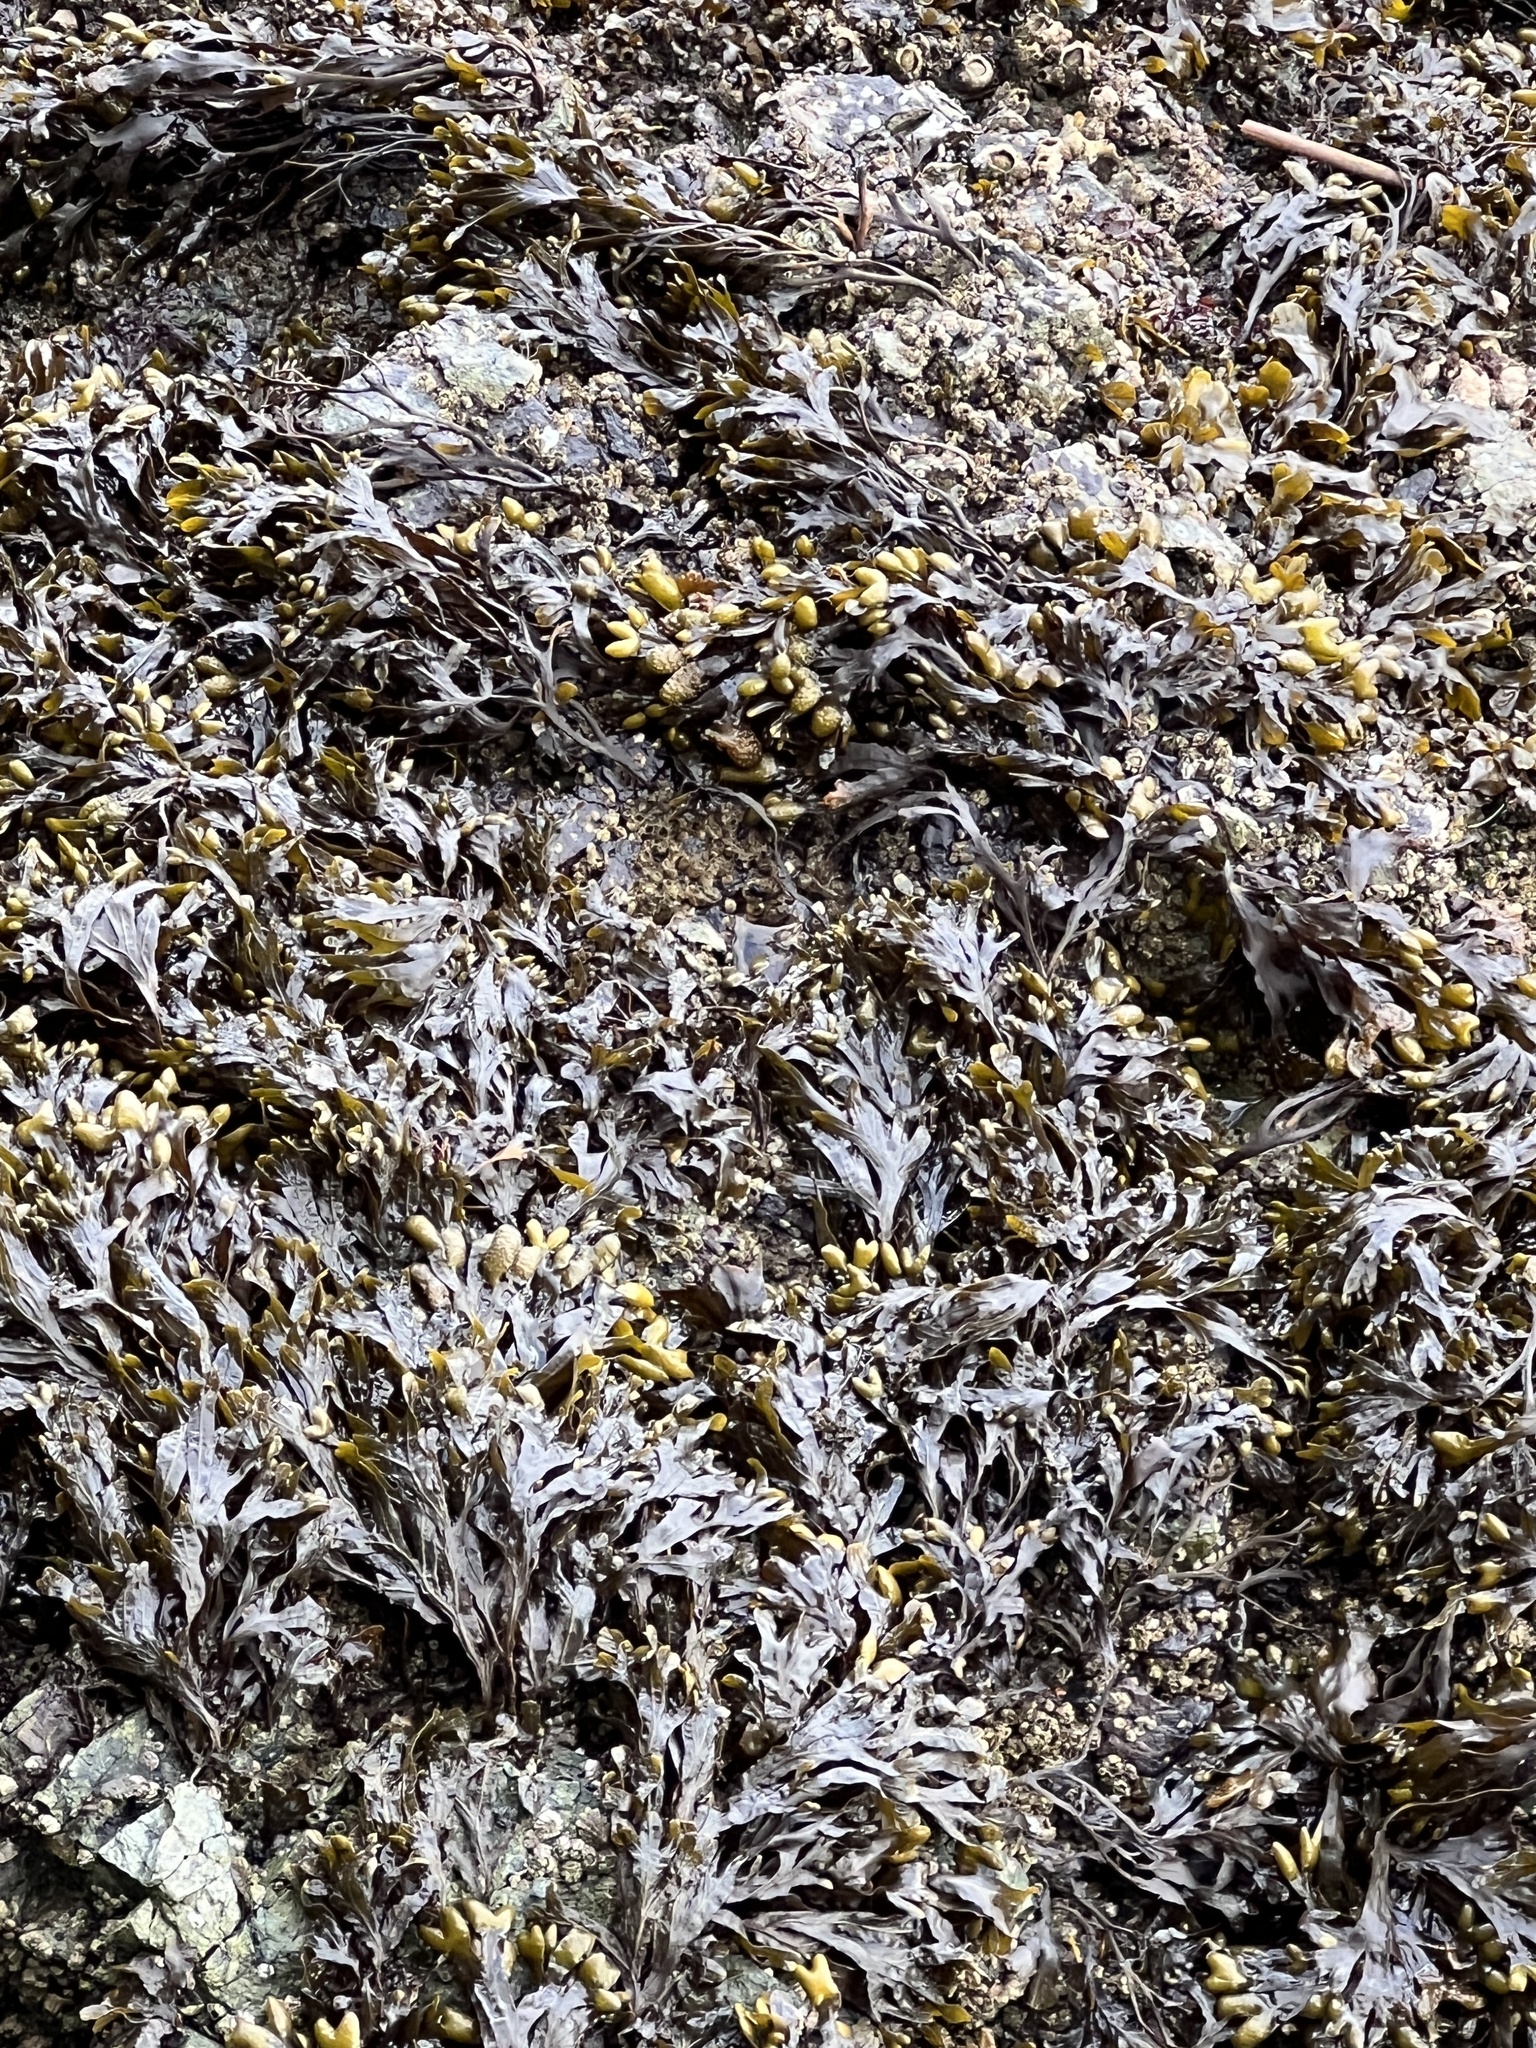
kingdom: Chromista
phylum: Ochrophyta
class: Phaeophyceae
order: Fucales
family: Fucaceae
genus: Fucus
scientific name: Fucus distichus
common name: Rockweed
